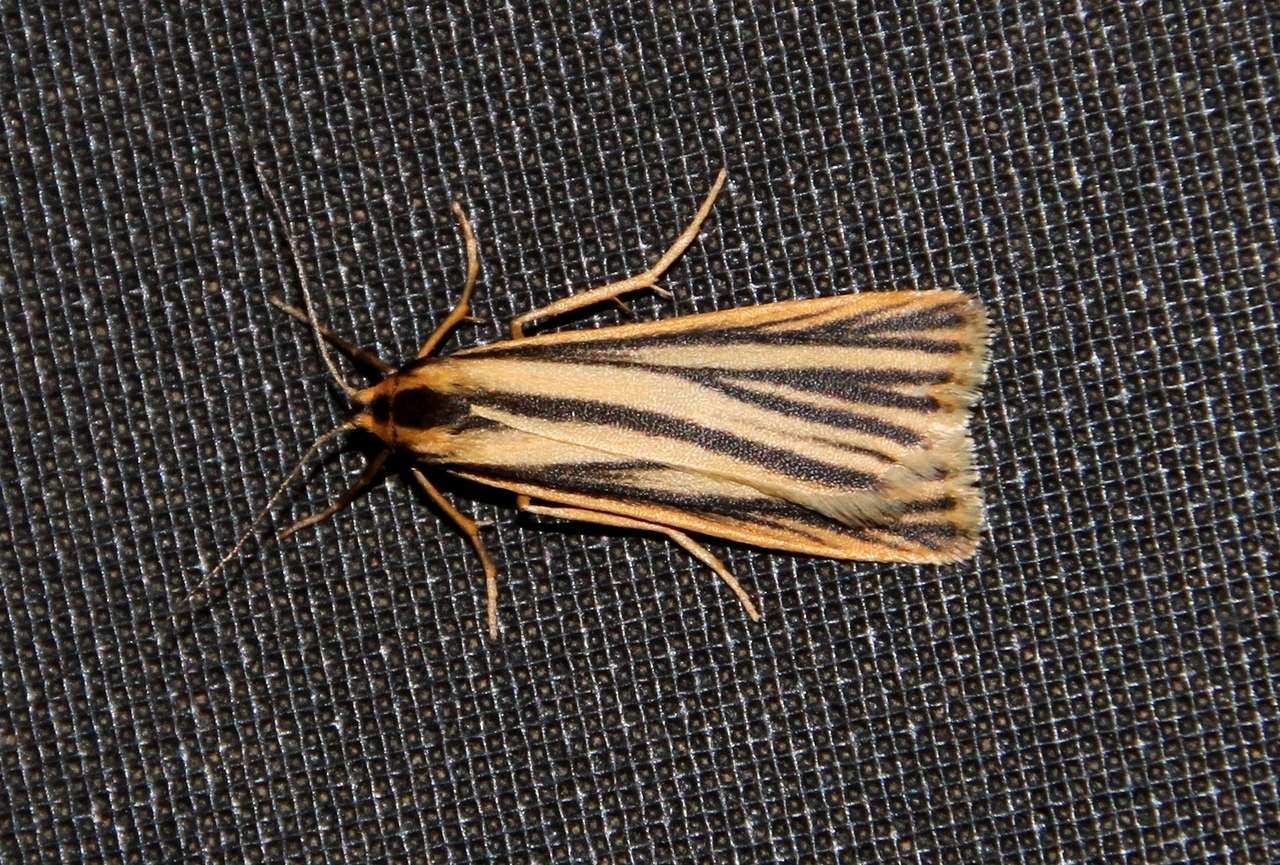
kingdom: Animalia
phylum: Arthropoda
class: Insecta
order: Lepidoptera
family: Erebidae
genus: Phaeophlebosia
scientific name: Phaeophlebosia furcifera
